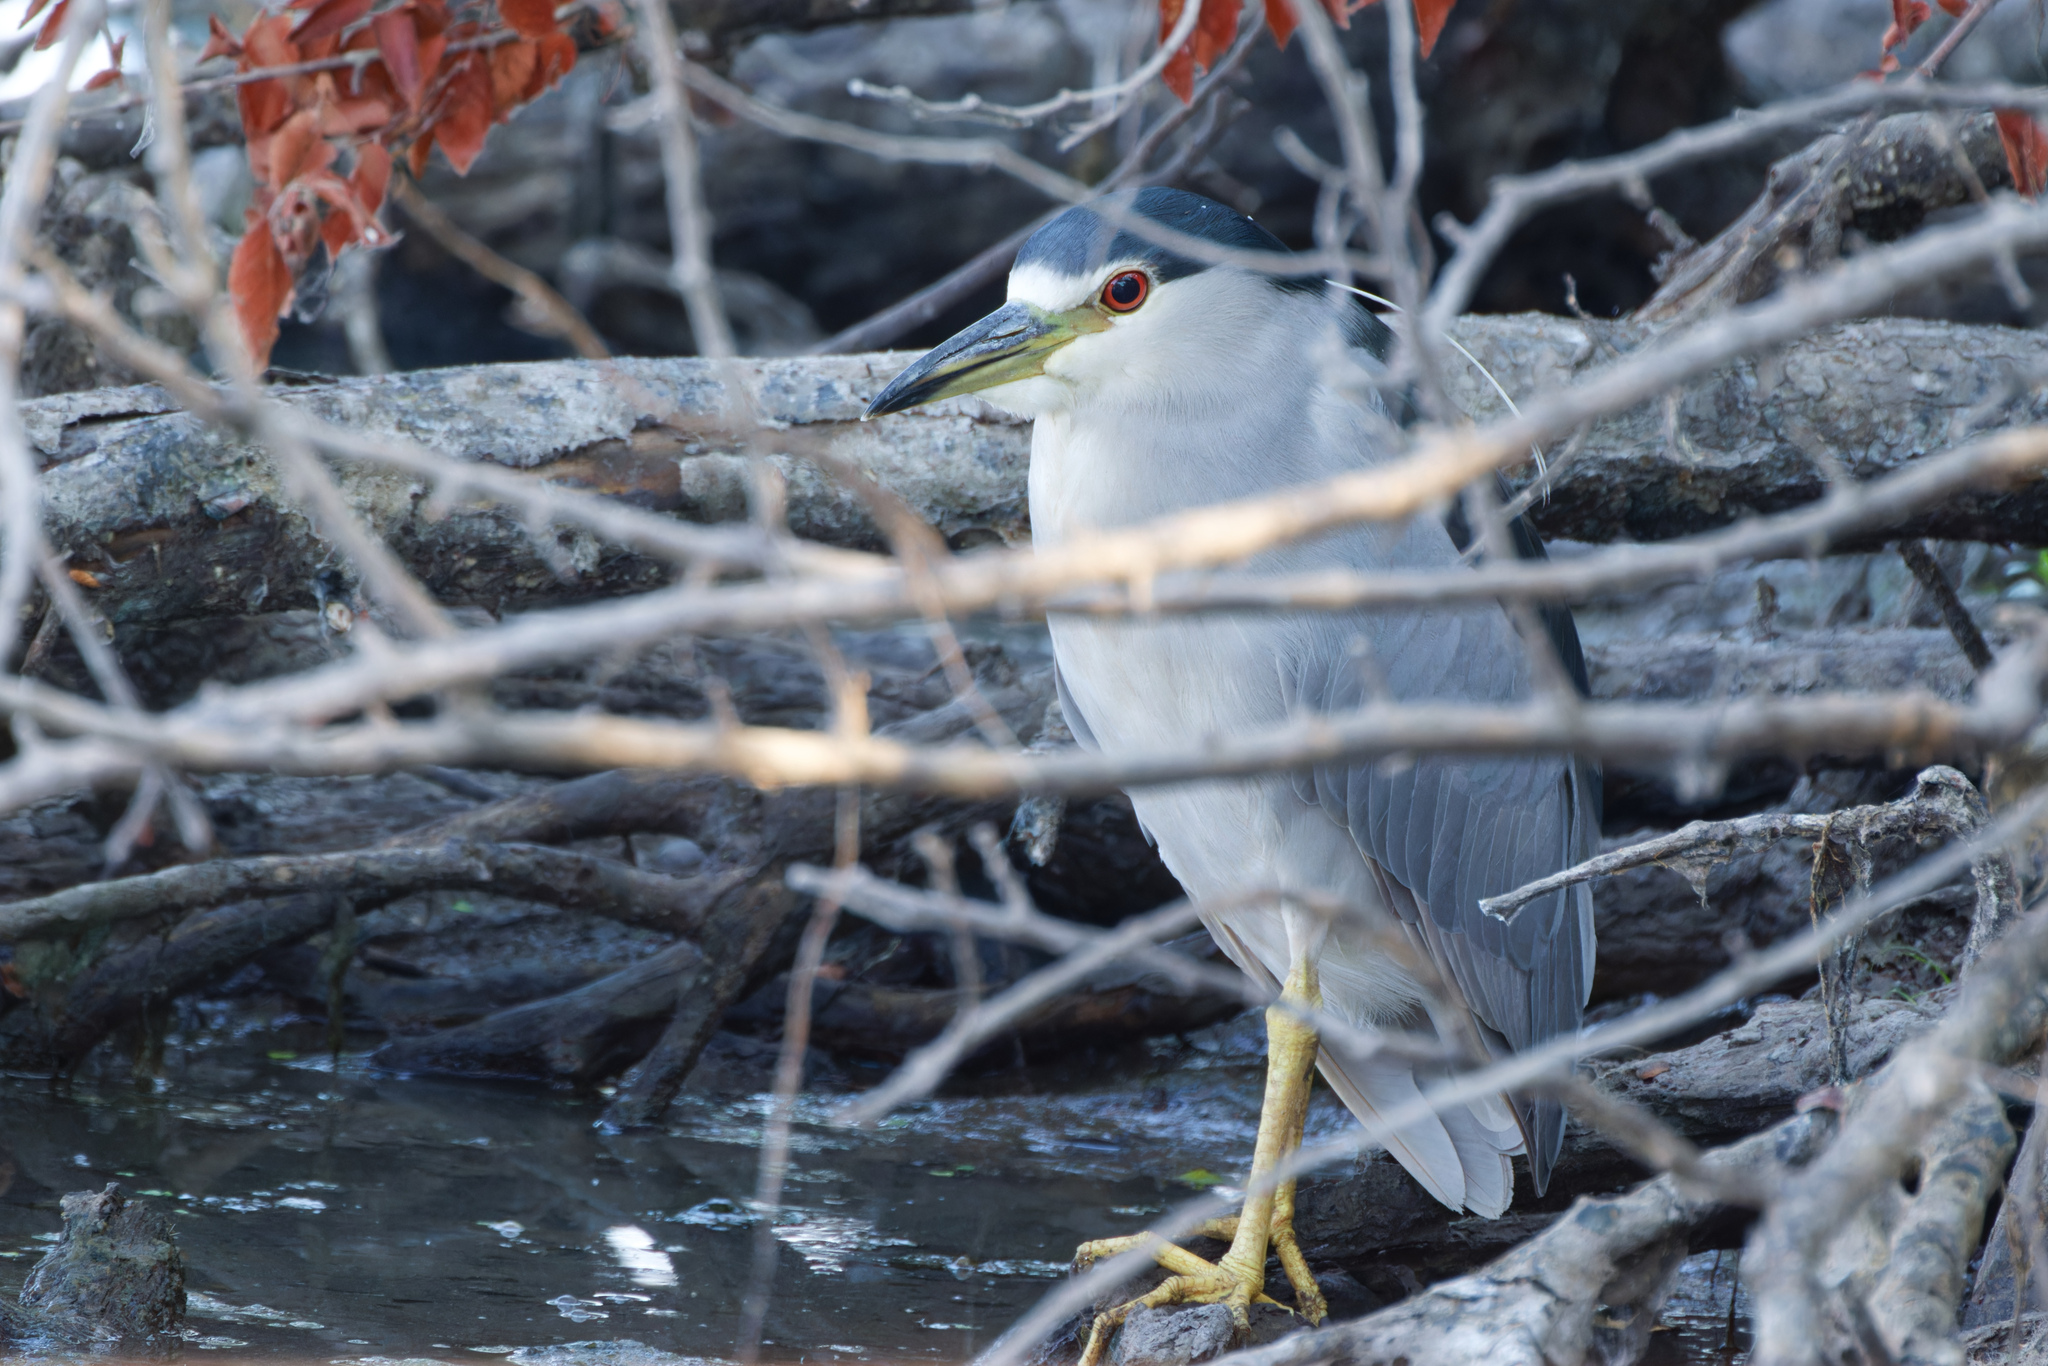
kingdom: Animalia
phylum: Chordata
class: Aves
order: Pelecaniformes
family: Ardeidae
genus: Nycticorax
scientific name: Nycticorax nycticorax
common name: Black-crowned night heron
